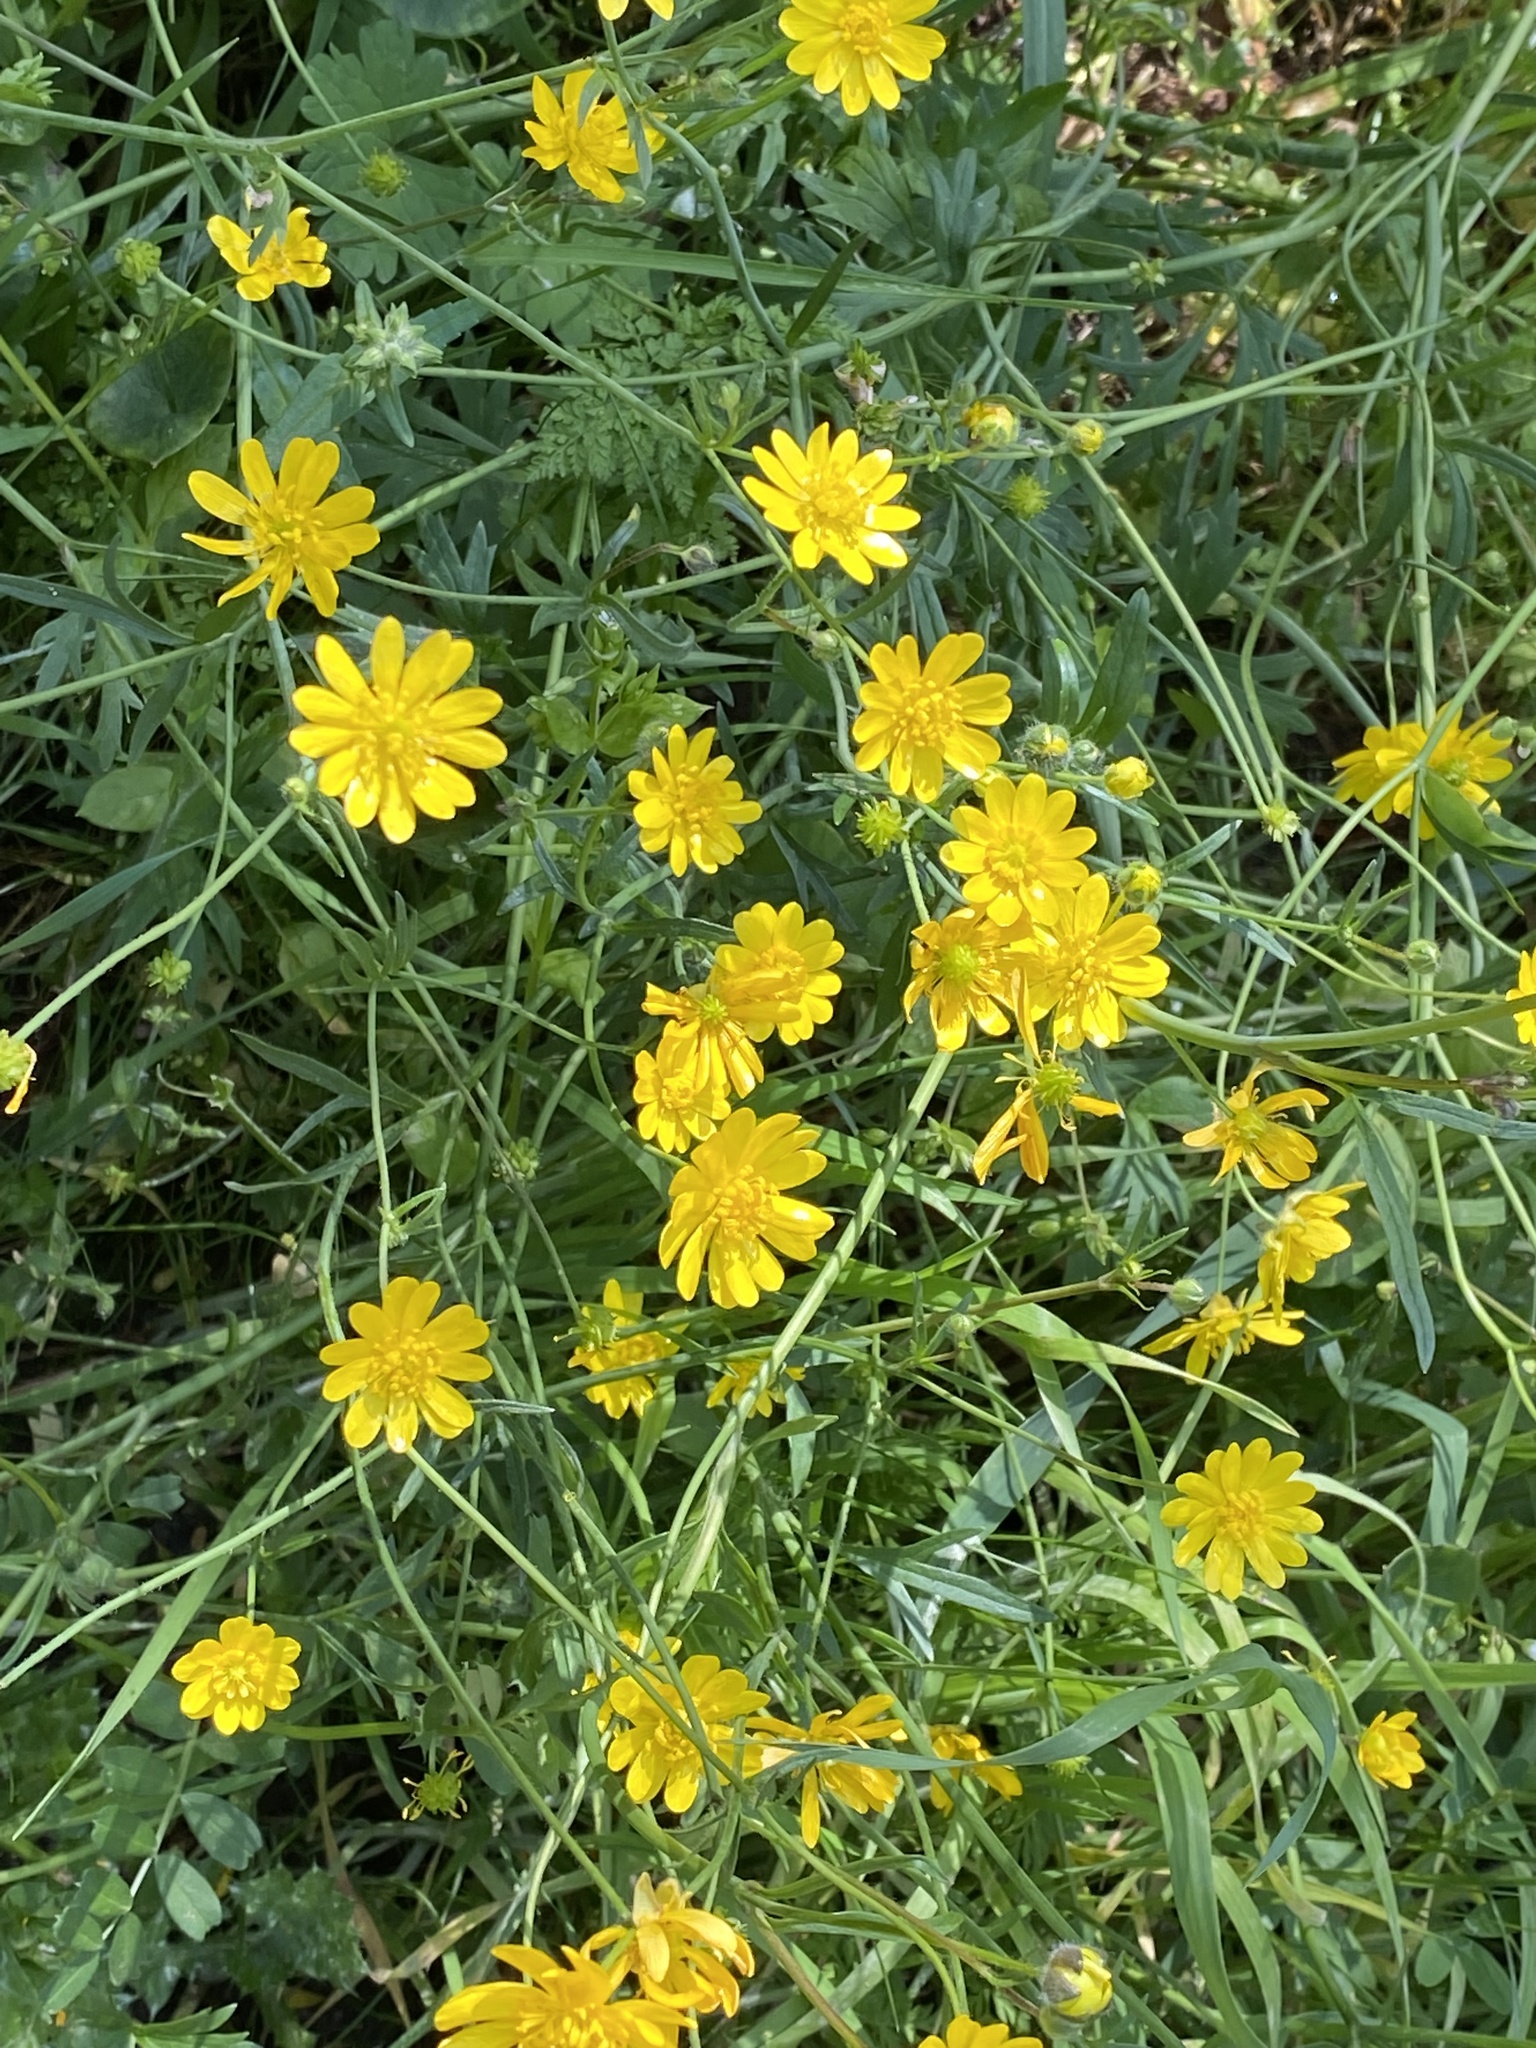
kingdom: Plantae
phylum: Tracheophyta
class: Magnoliopsida
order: Ranunculales
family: Ranunculaceae
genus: Ranunculus
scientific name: Ranunculus californicus
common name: California buttercup
